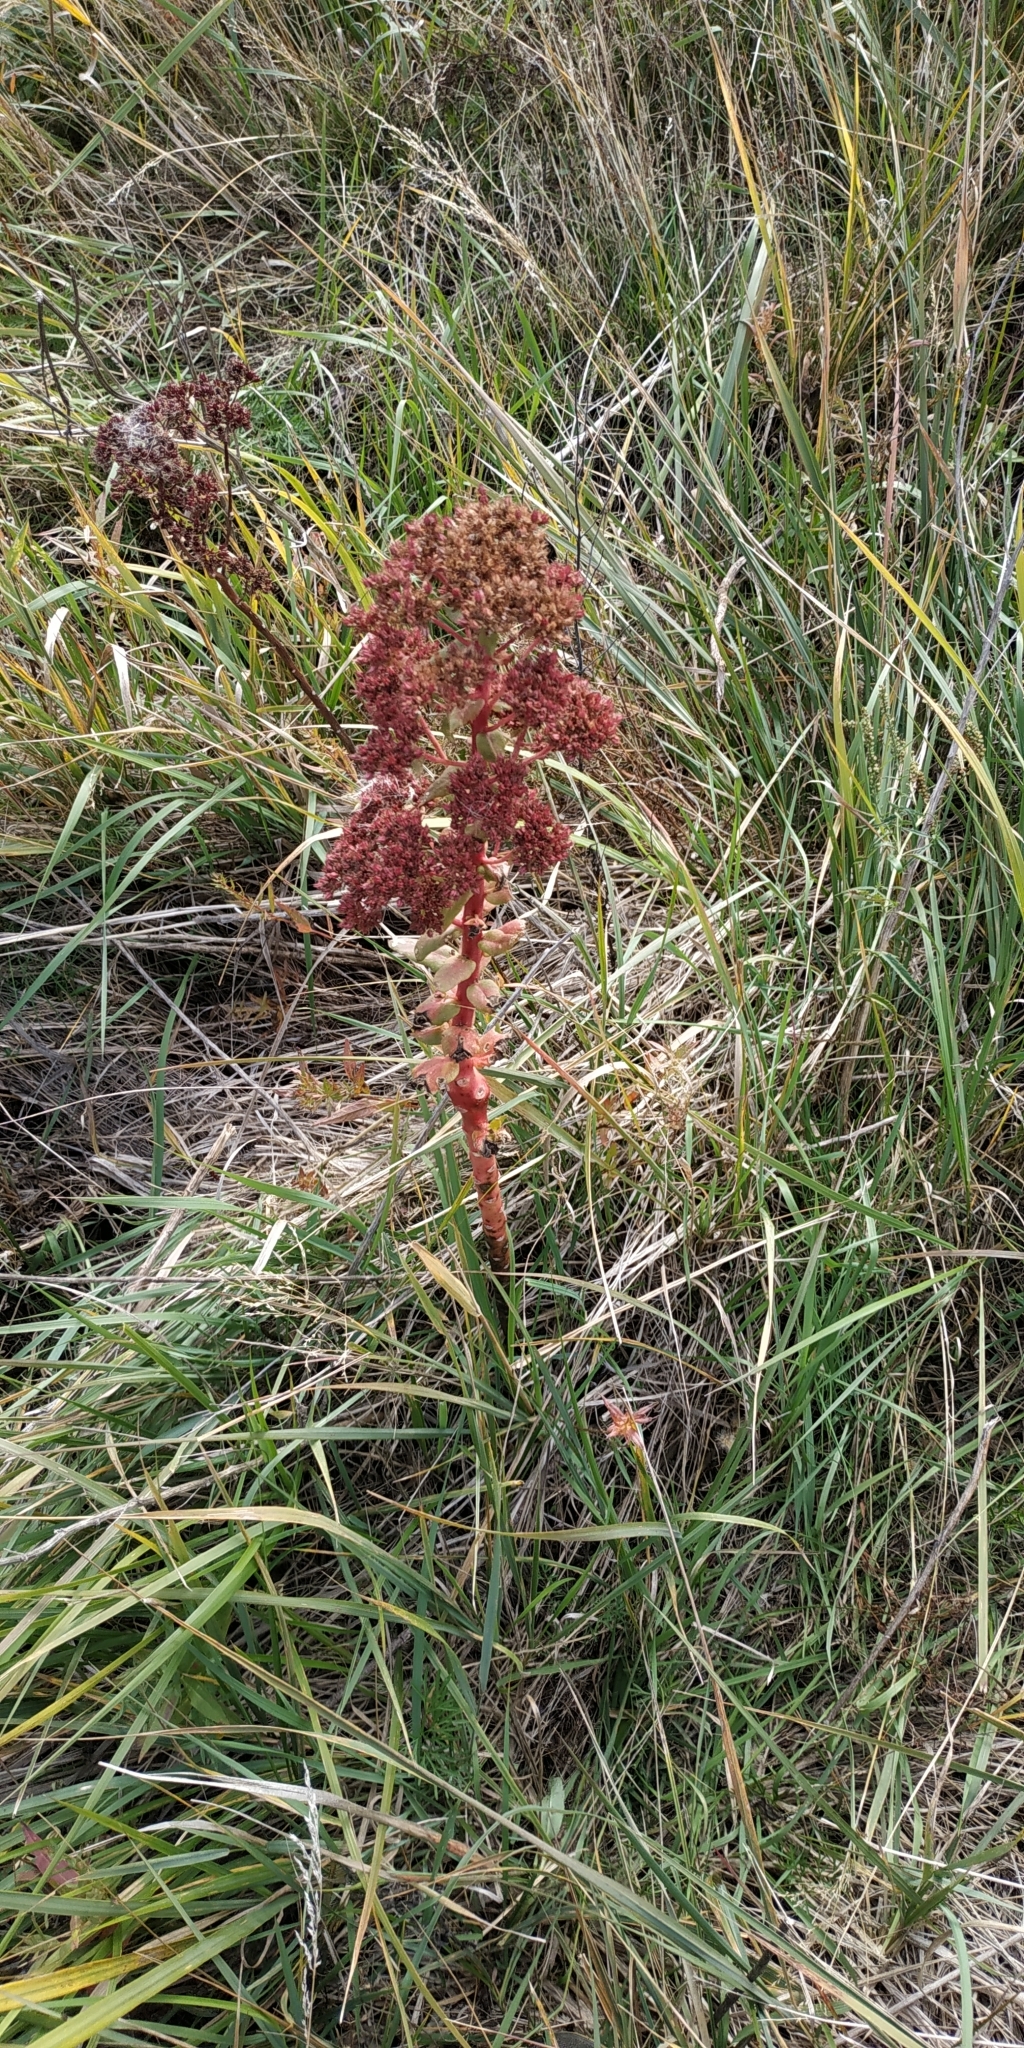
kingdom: Plantae
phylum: Tracheophyta
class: Magnoliopsida
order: Saxifragales
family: Crassulaceae
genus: Hylotelephium
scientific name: Hylotelephium telephium
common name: Live-forever
